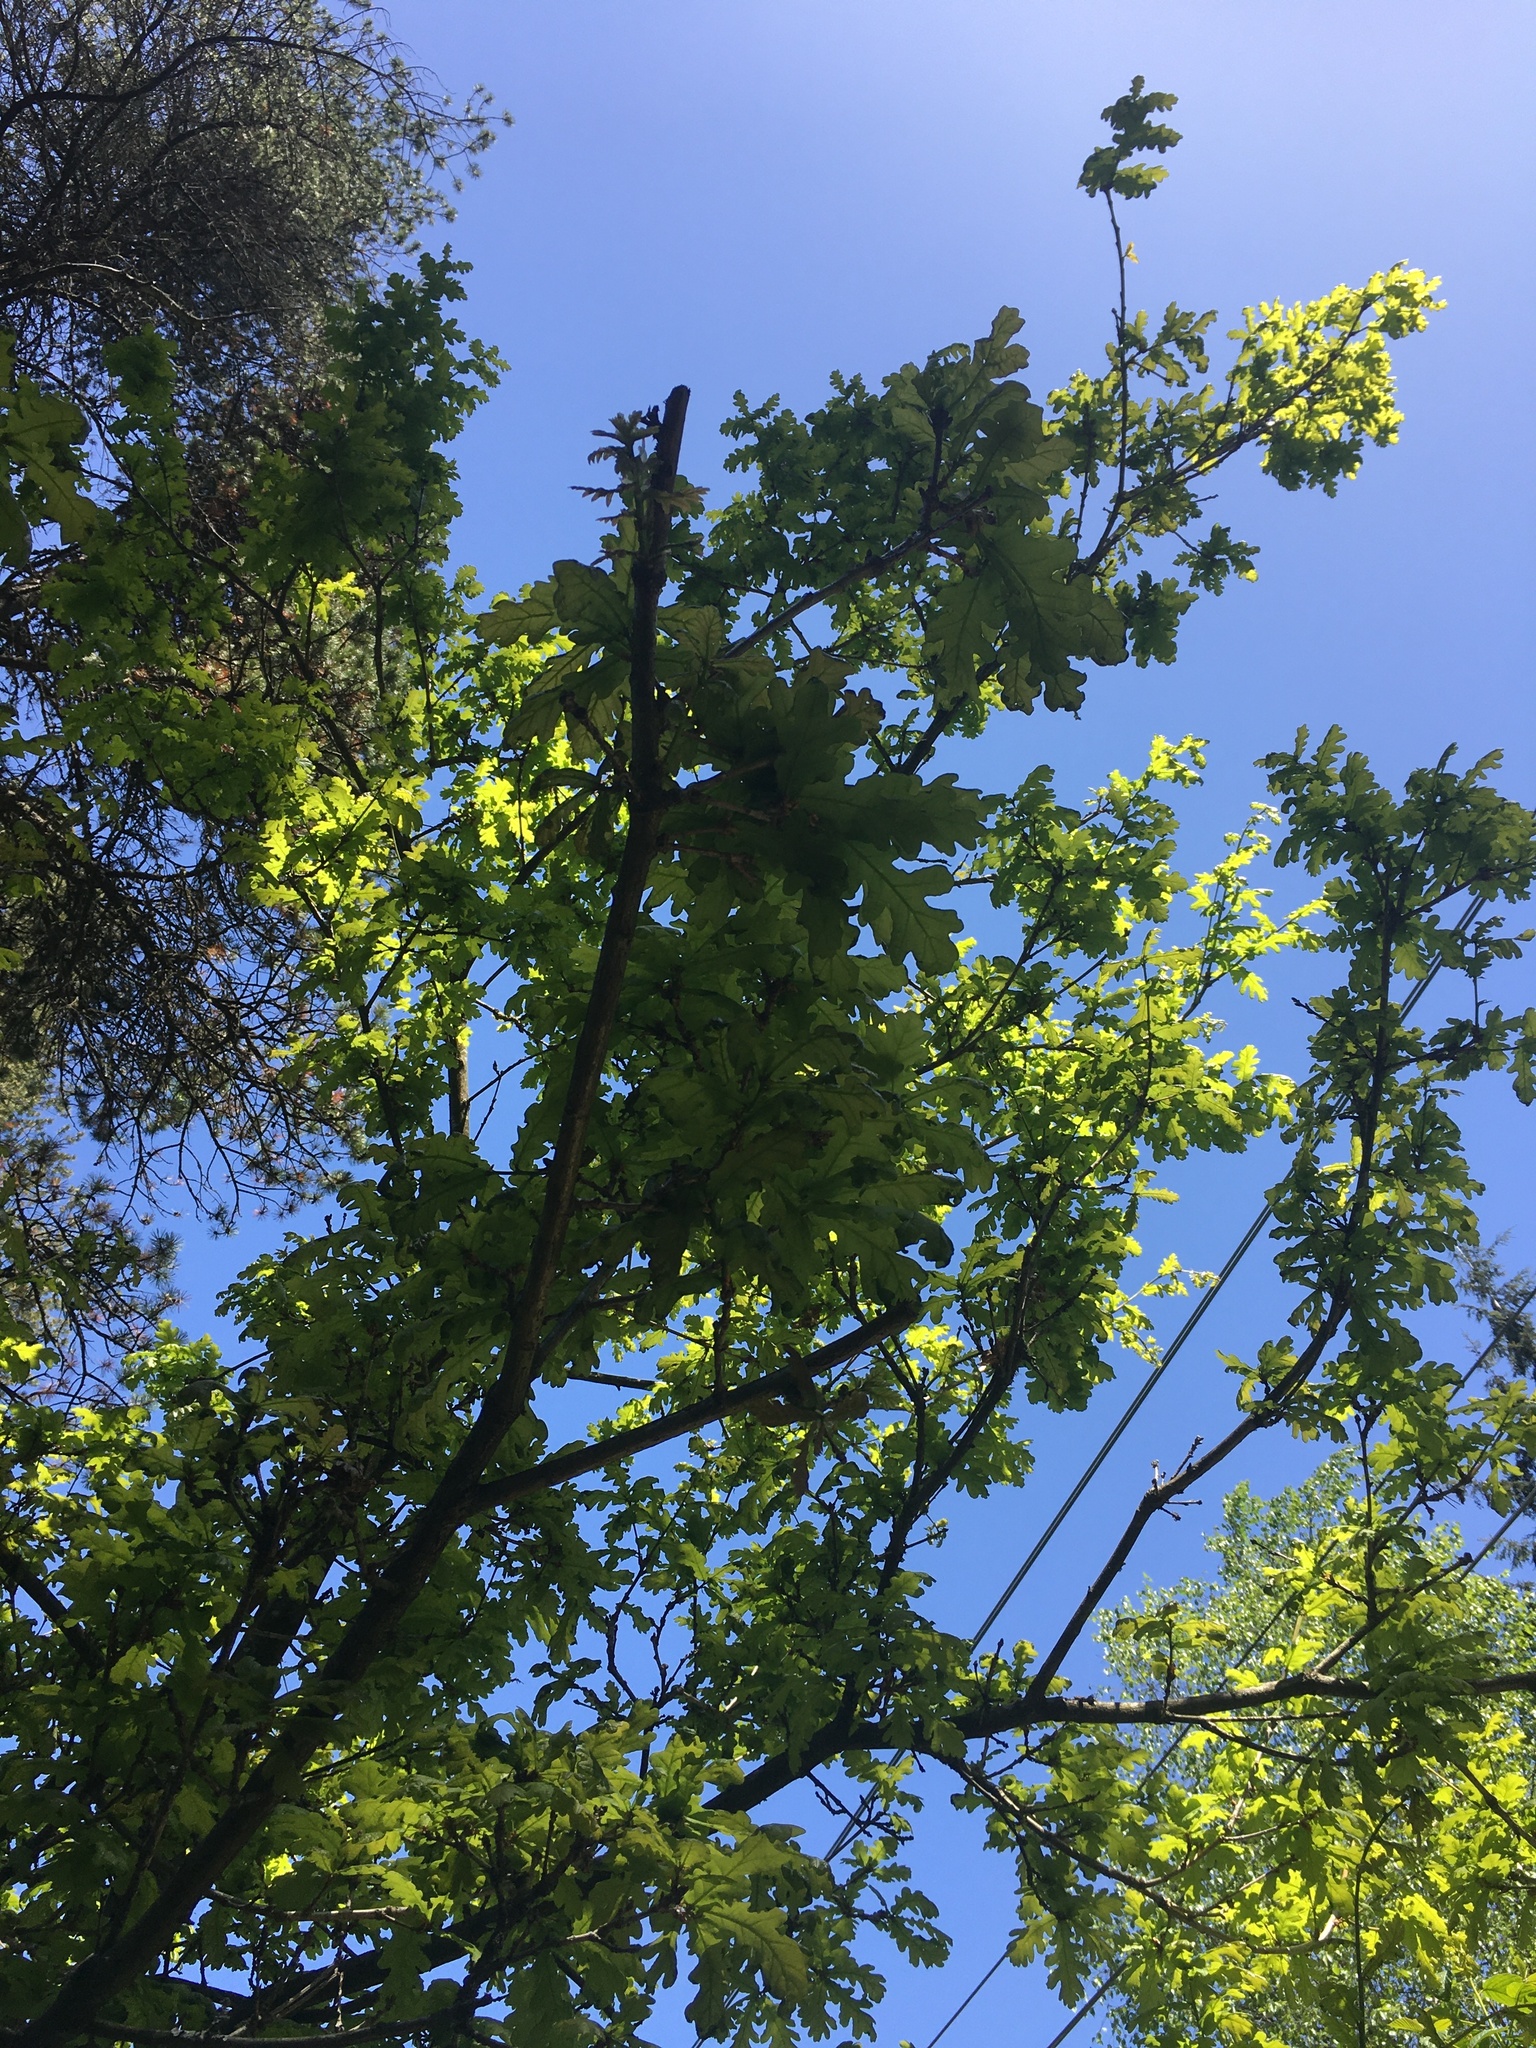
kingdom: Plantae
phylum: Tracheophyta
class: Magnoliopsida
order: Fagales
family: Fagaceae
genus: Quercus
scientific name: Quercus robur
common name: Pedunculate oak
